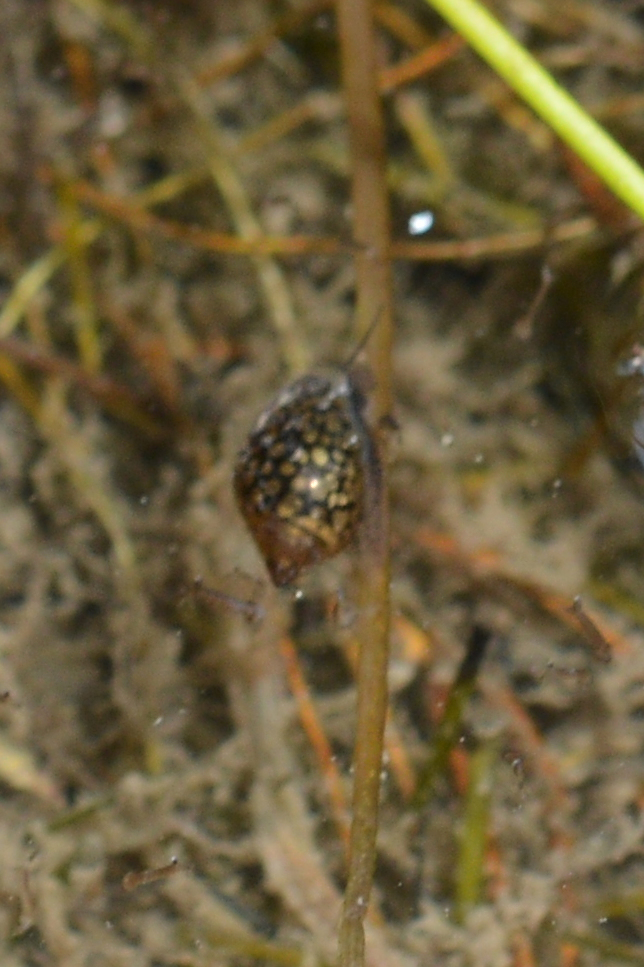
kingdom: Animalia
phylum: Mollusca
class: Gastropoda
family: Physidae
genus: Physella
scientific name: Physella acuta
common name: European physa
